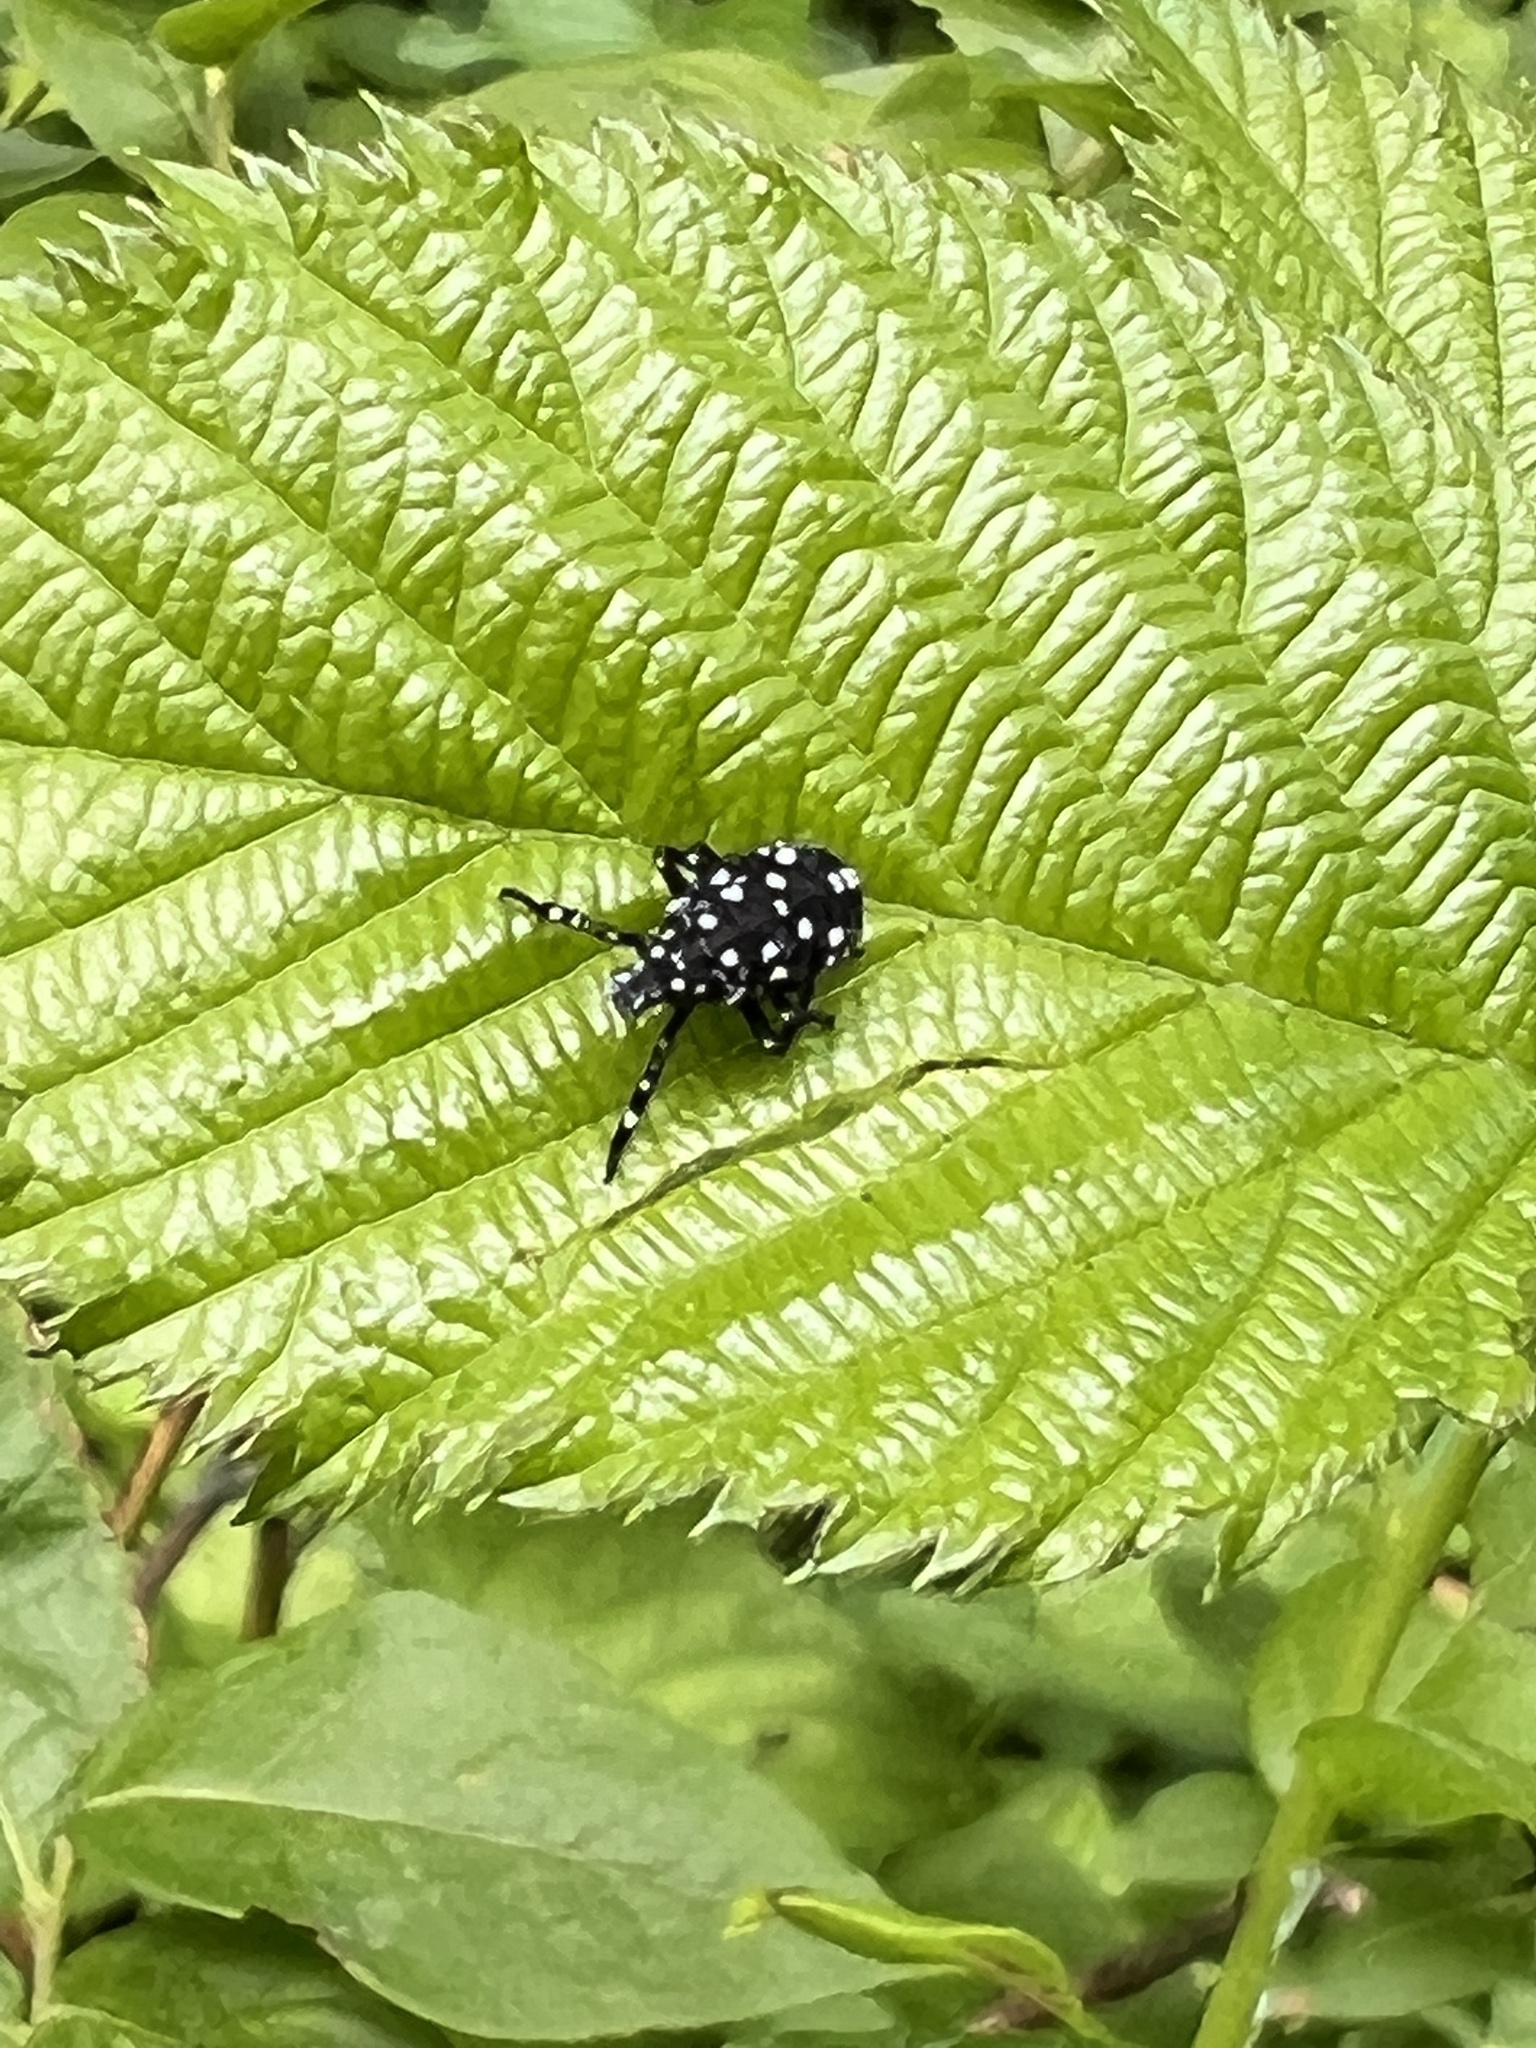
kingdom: Animalia
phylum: Arthropoda
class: Insecta
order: Hemiptera
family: Fulgoridae
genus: Lycorma
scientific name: Lycorma delicatula
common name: Spotted lanternfly
